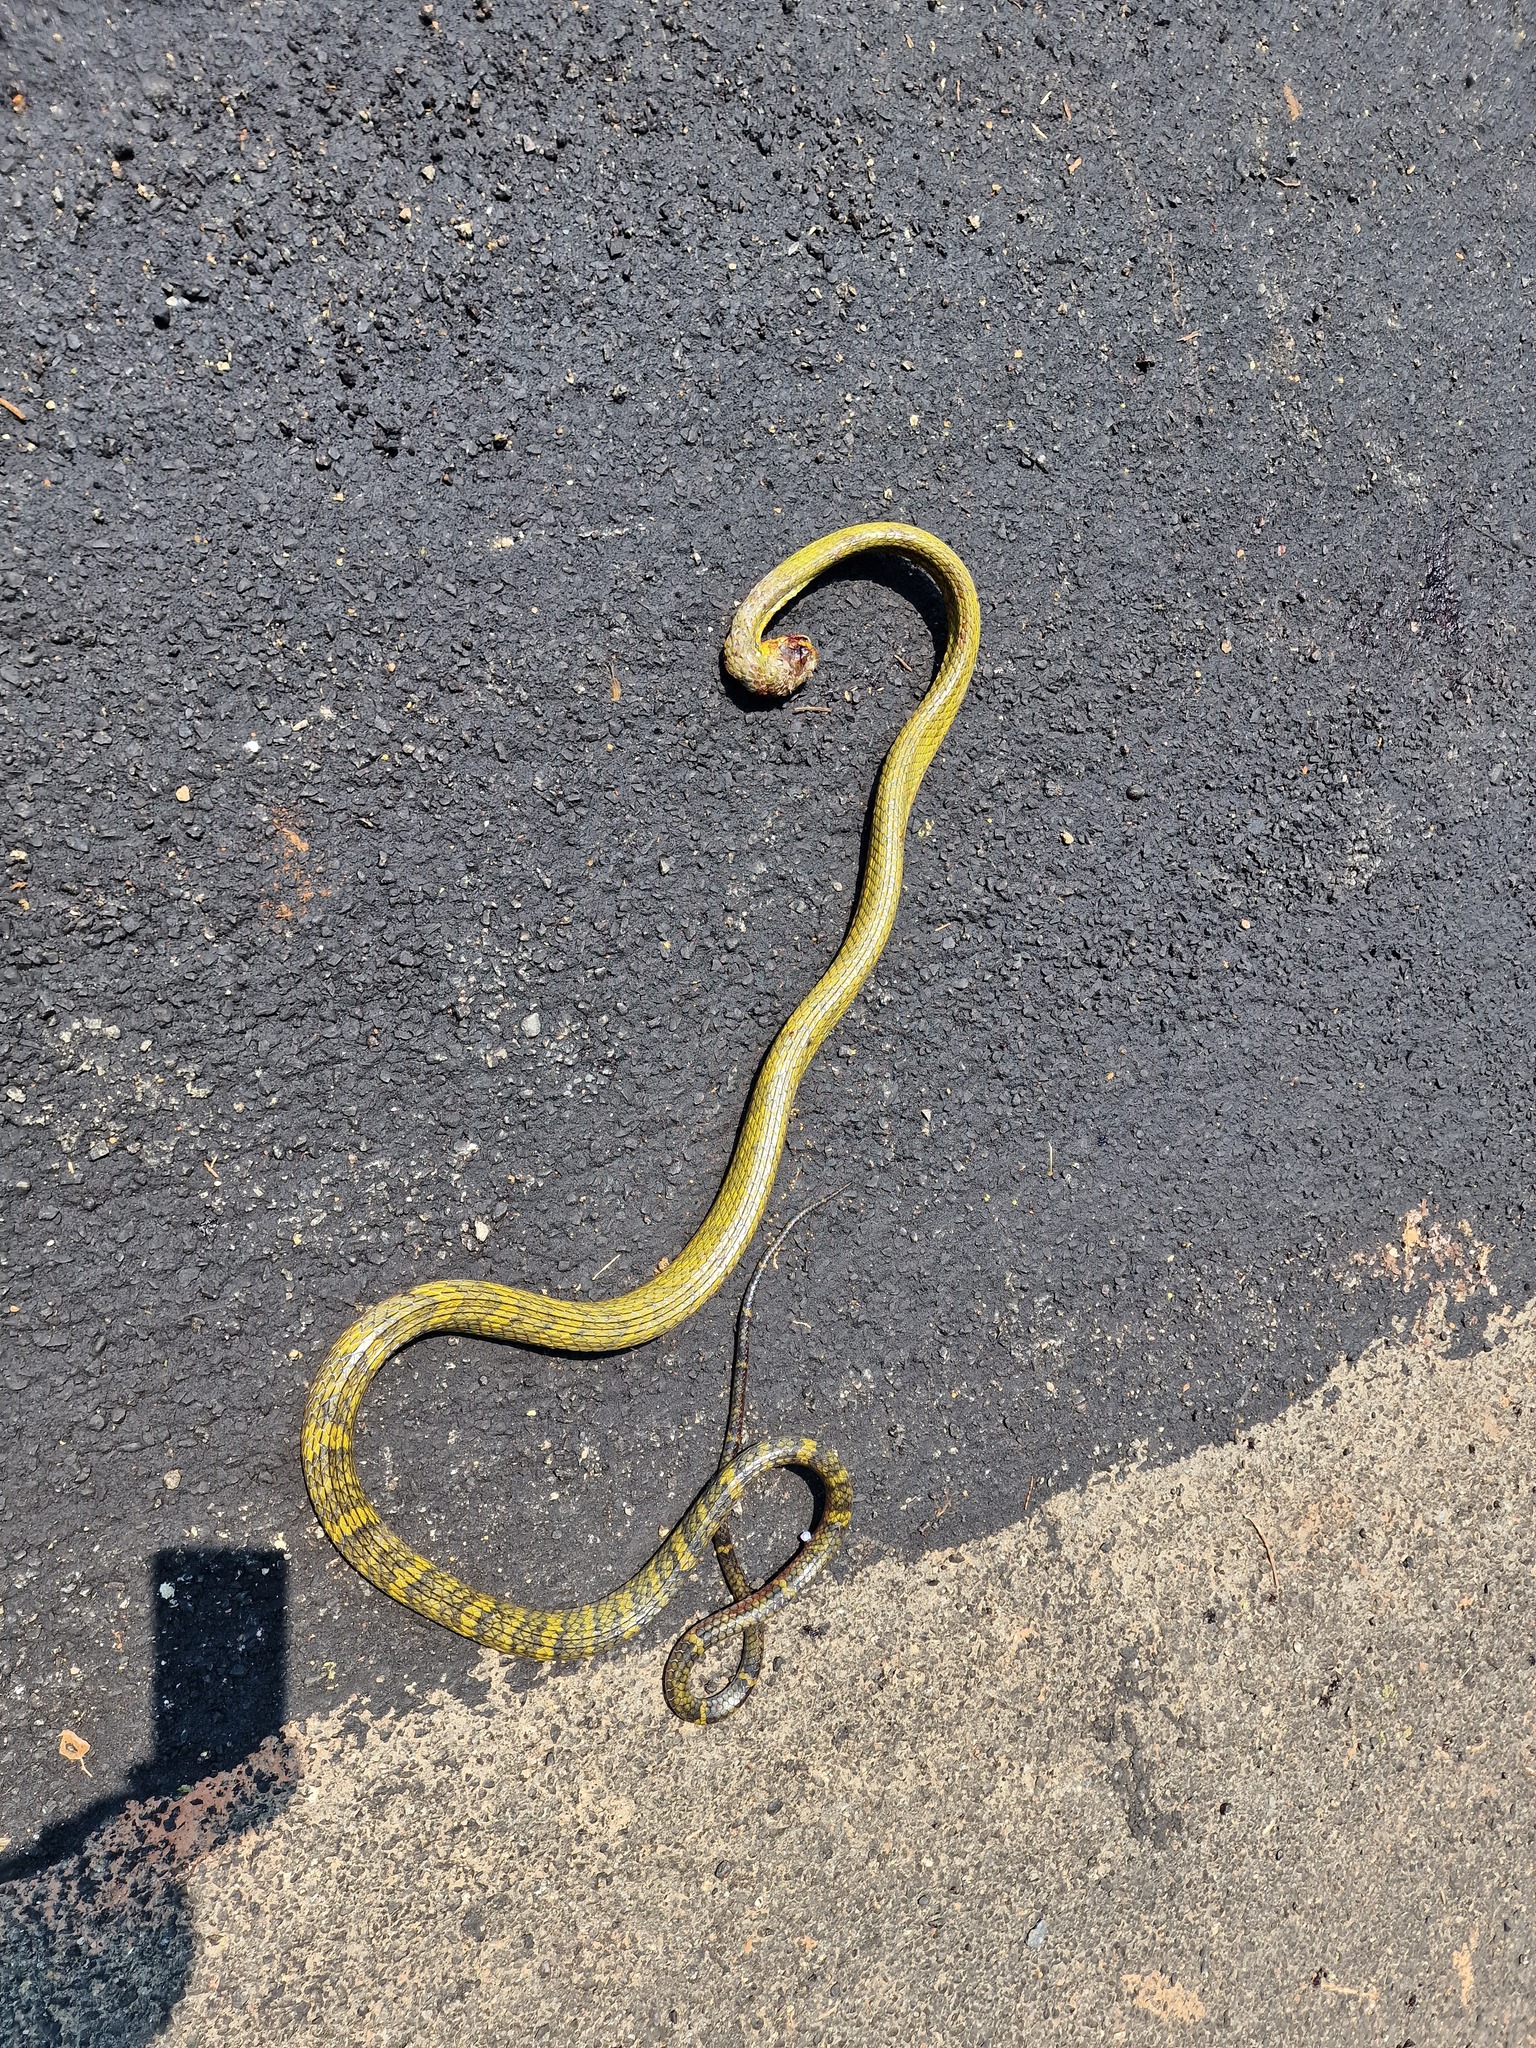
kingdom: Animalia
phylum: Chordata
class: Squamata
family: Colubridae
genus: Spilotes
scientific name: Spilotes sulphureus
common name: Amazon puffing snake
